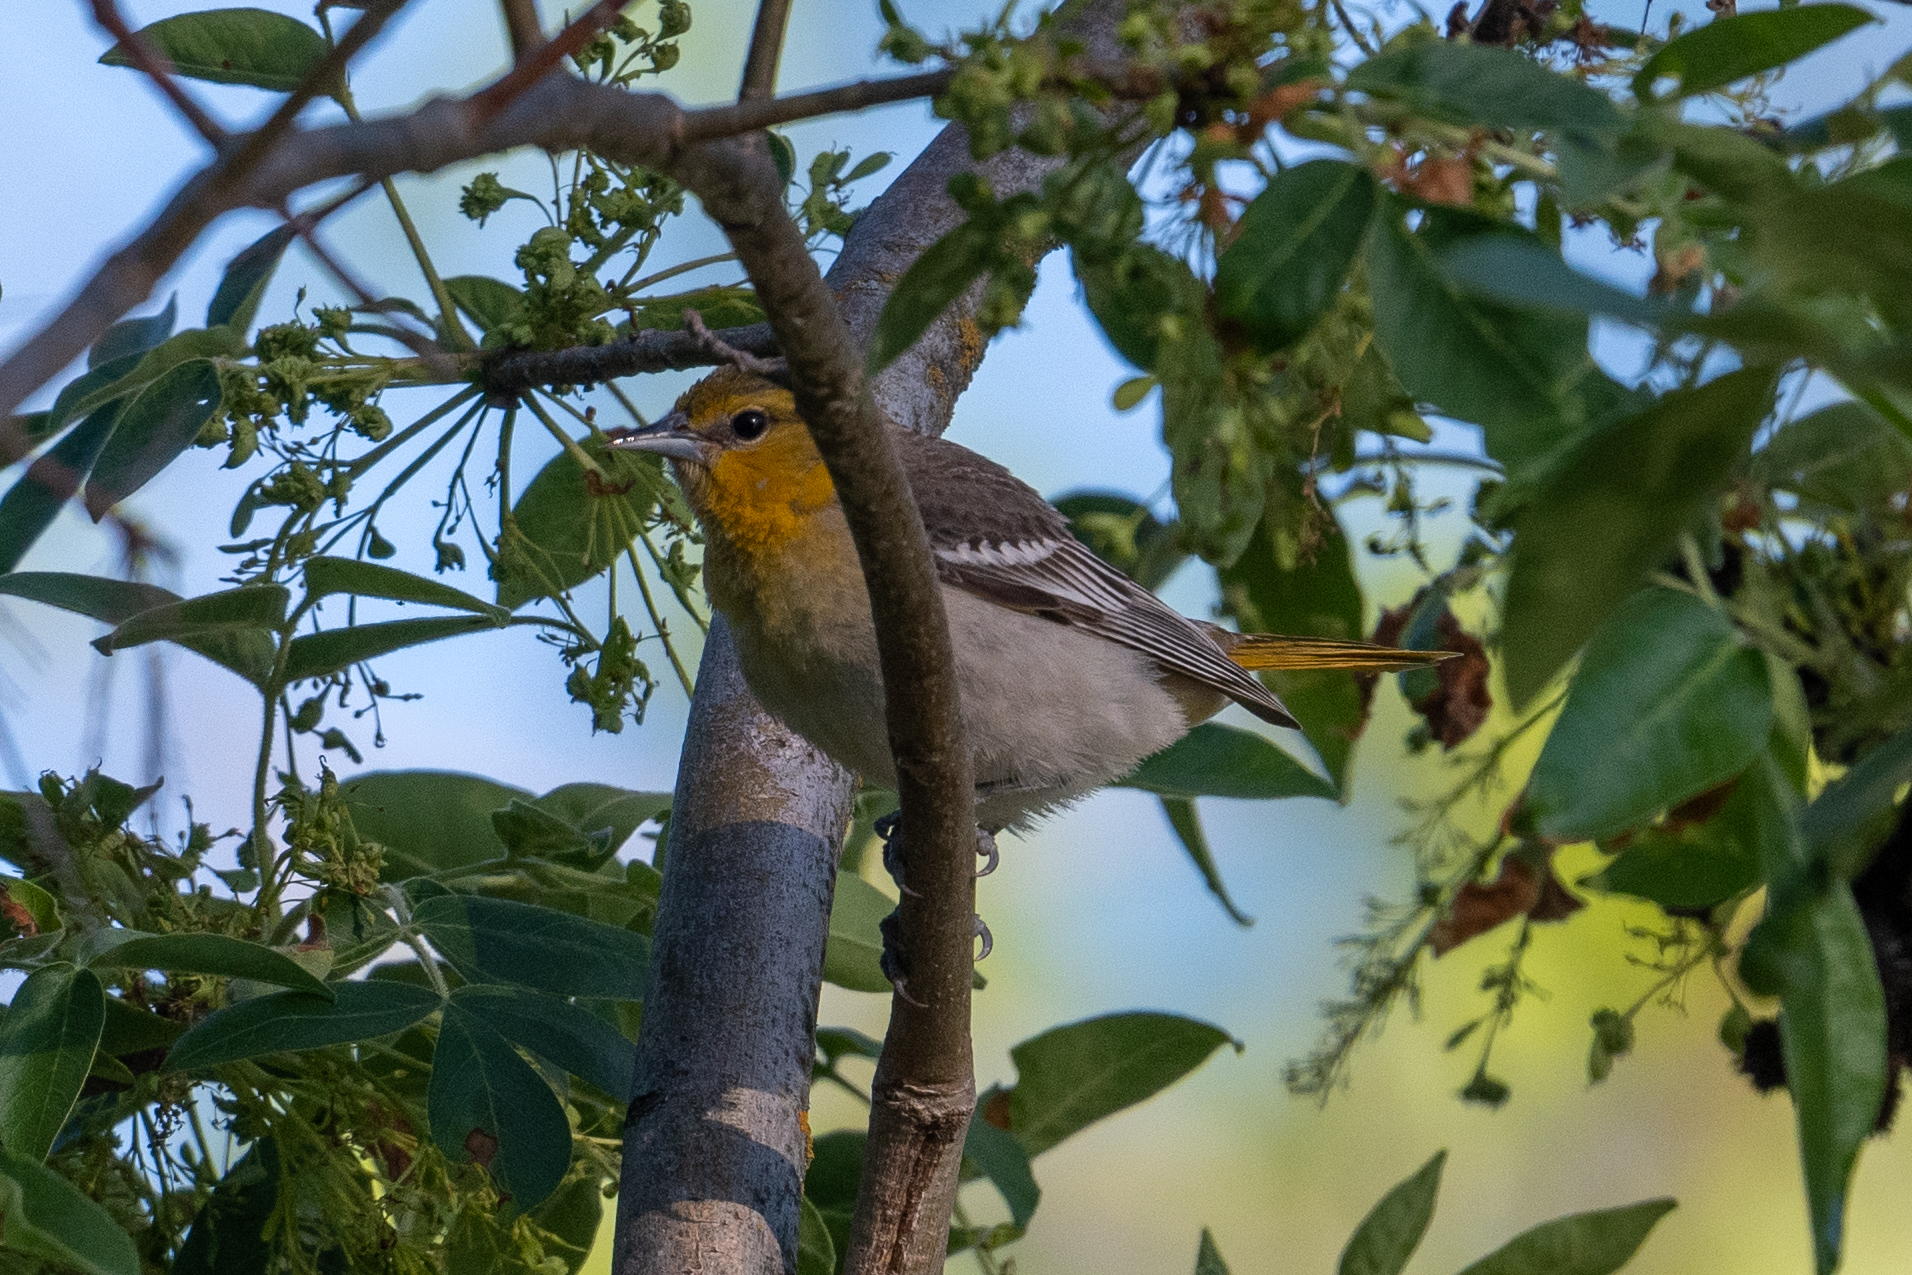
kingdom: Animalia
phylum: Chordata
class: Aves
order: Passeriformes
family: Icteridae
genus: Icterus
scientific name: Icterus bullockii
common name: Bullock's oriole
